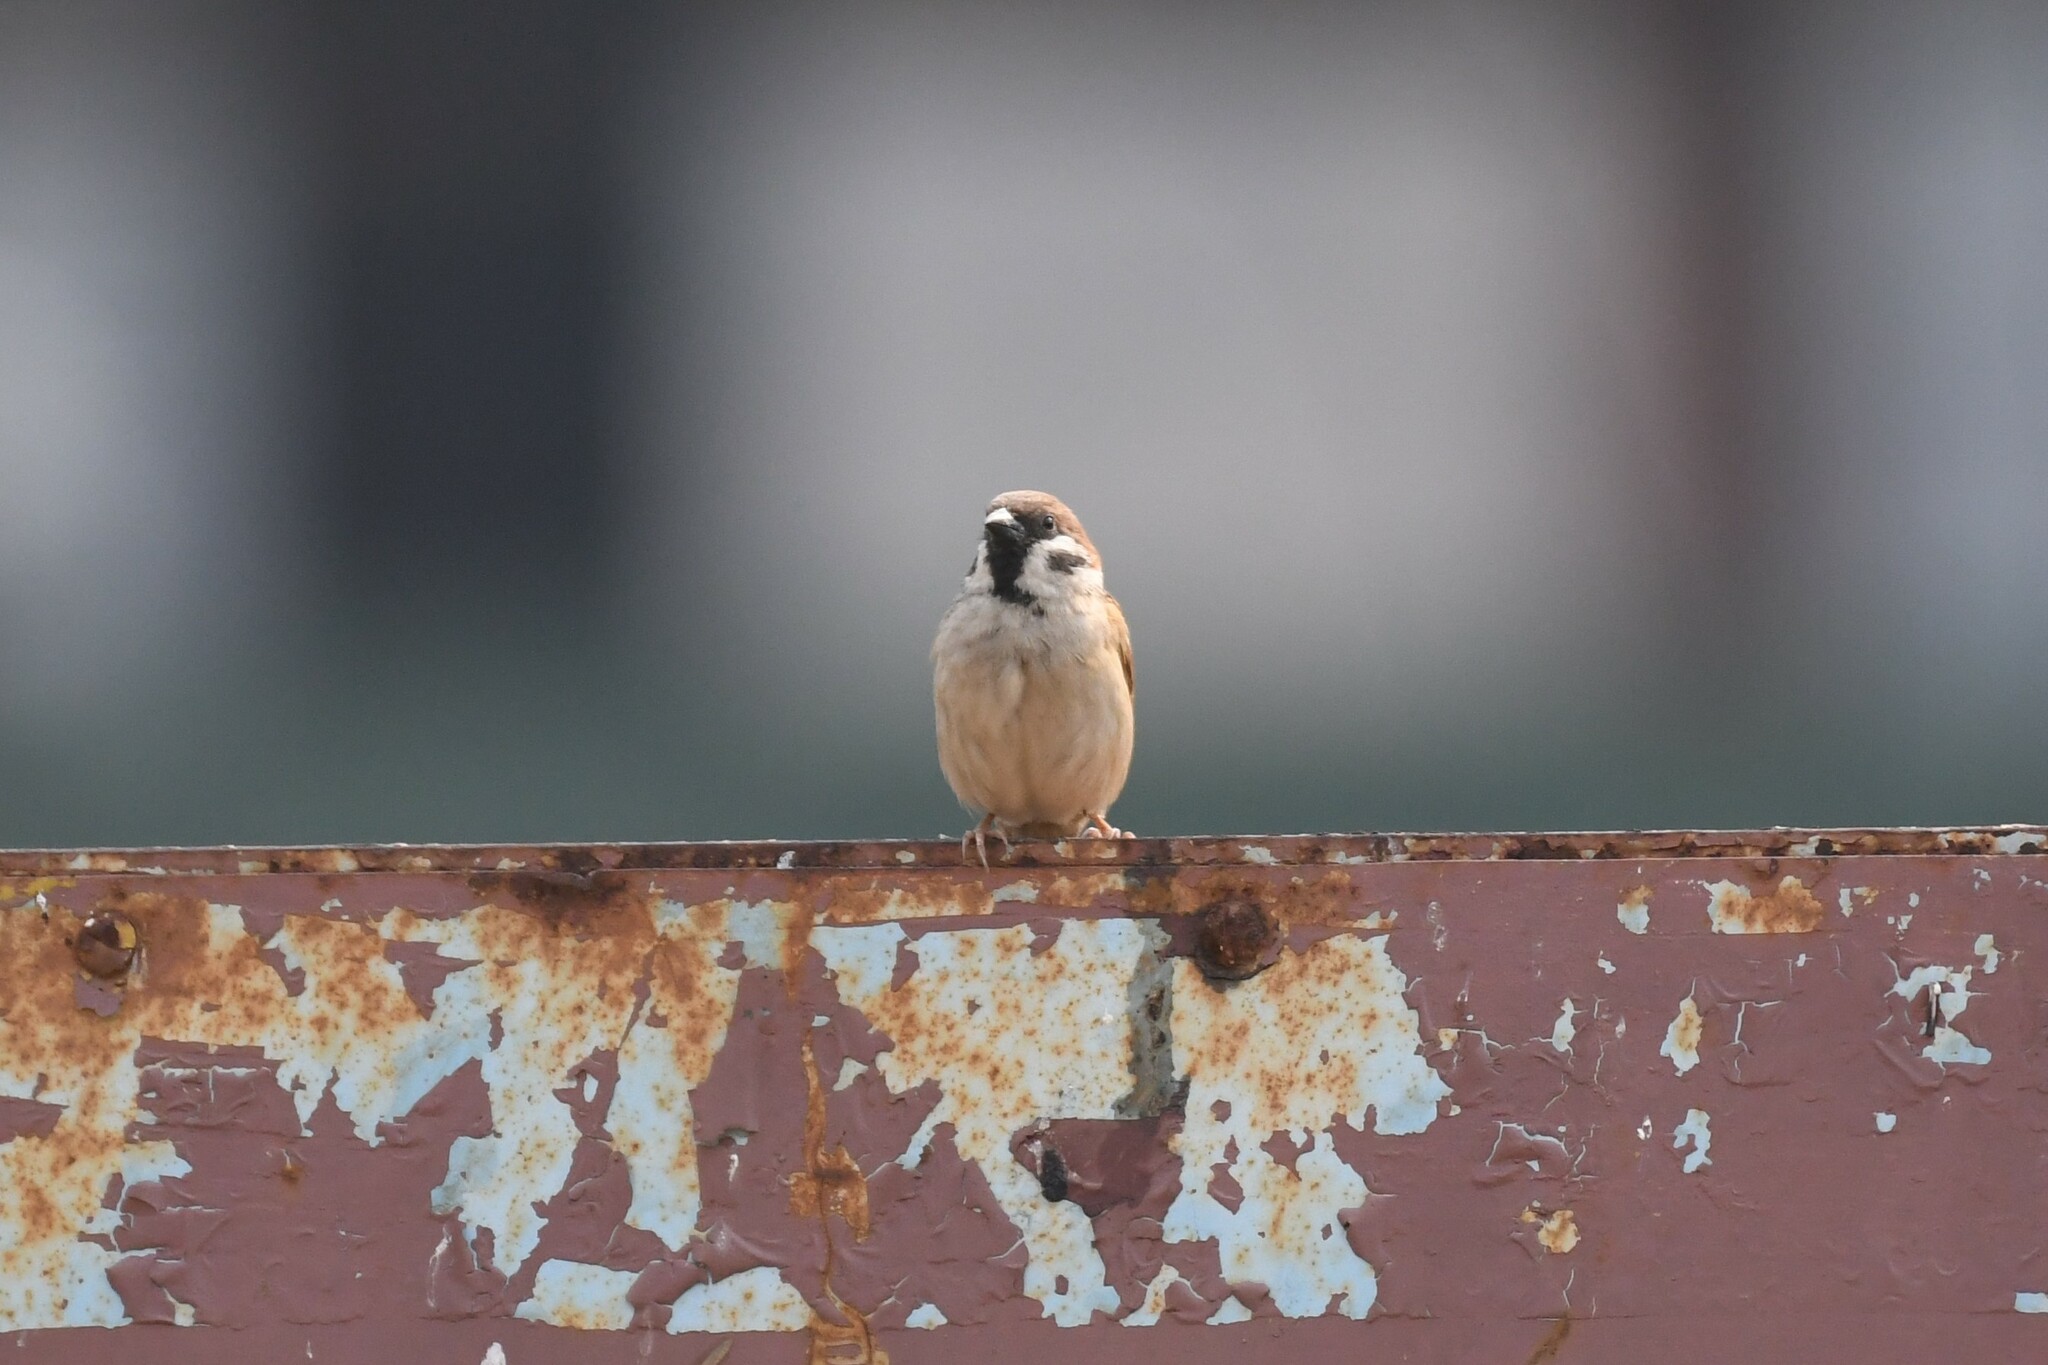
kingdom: Animalia
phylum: Chordata
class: Aves
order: Passeriformes
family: Passeridae
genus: Passer
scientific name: Passer montanus
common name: Eurasian tree sparrow
